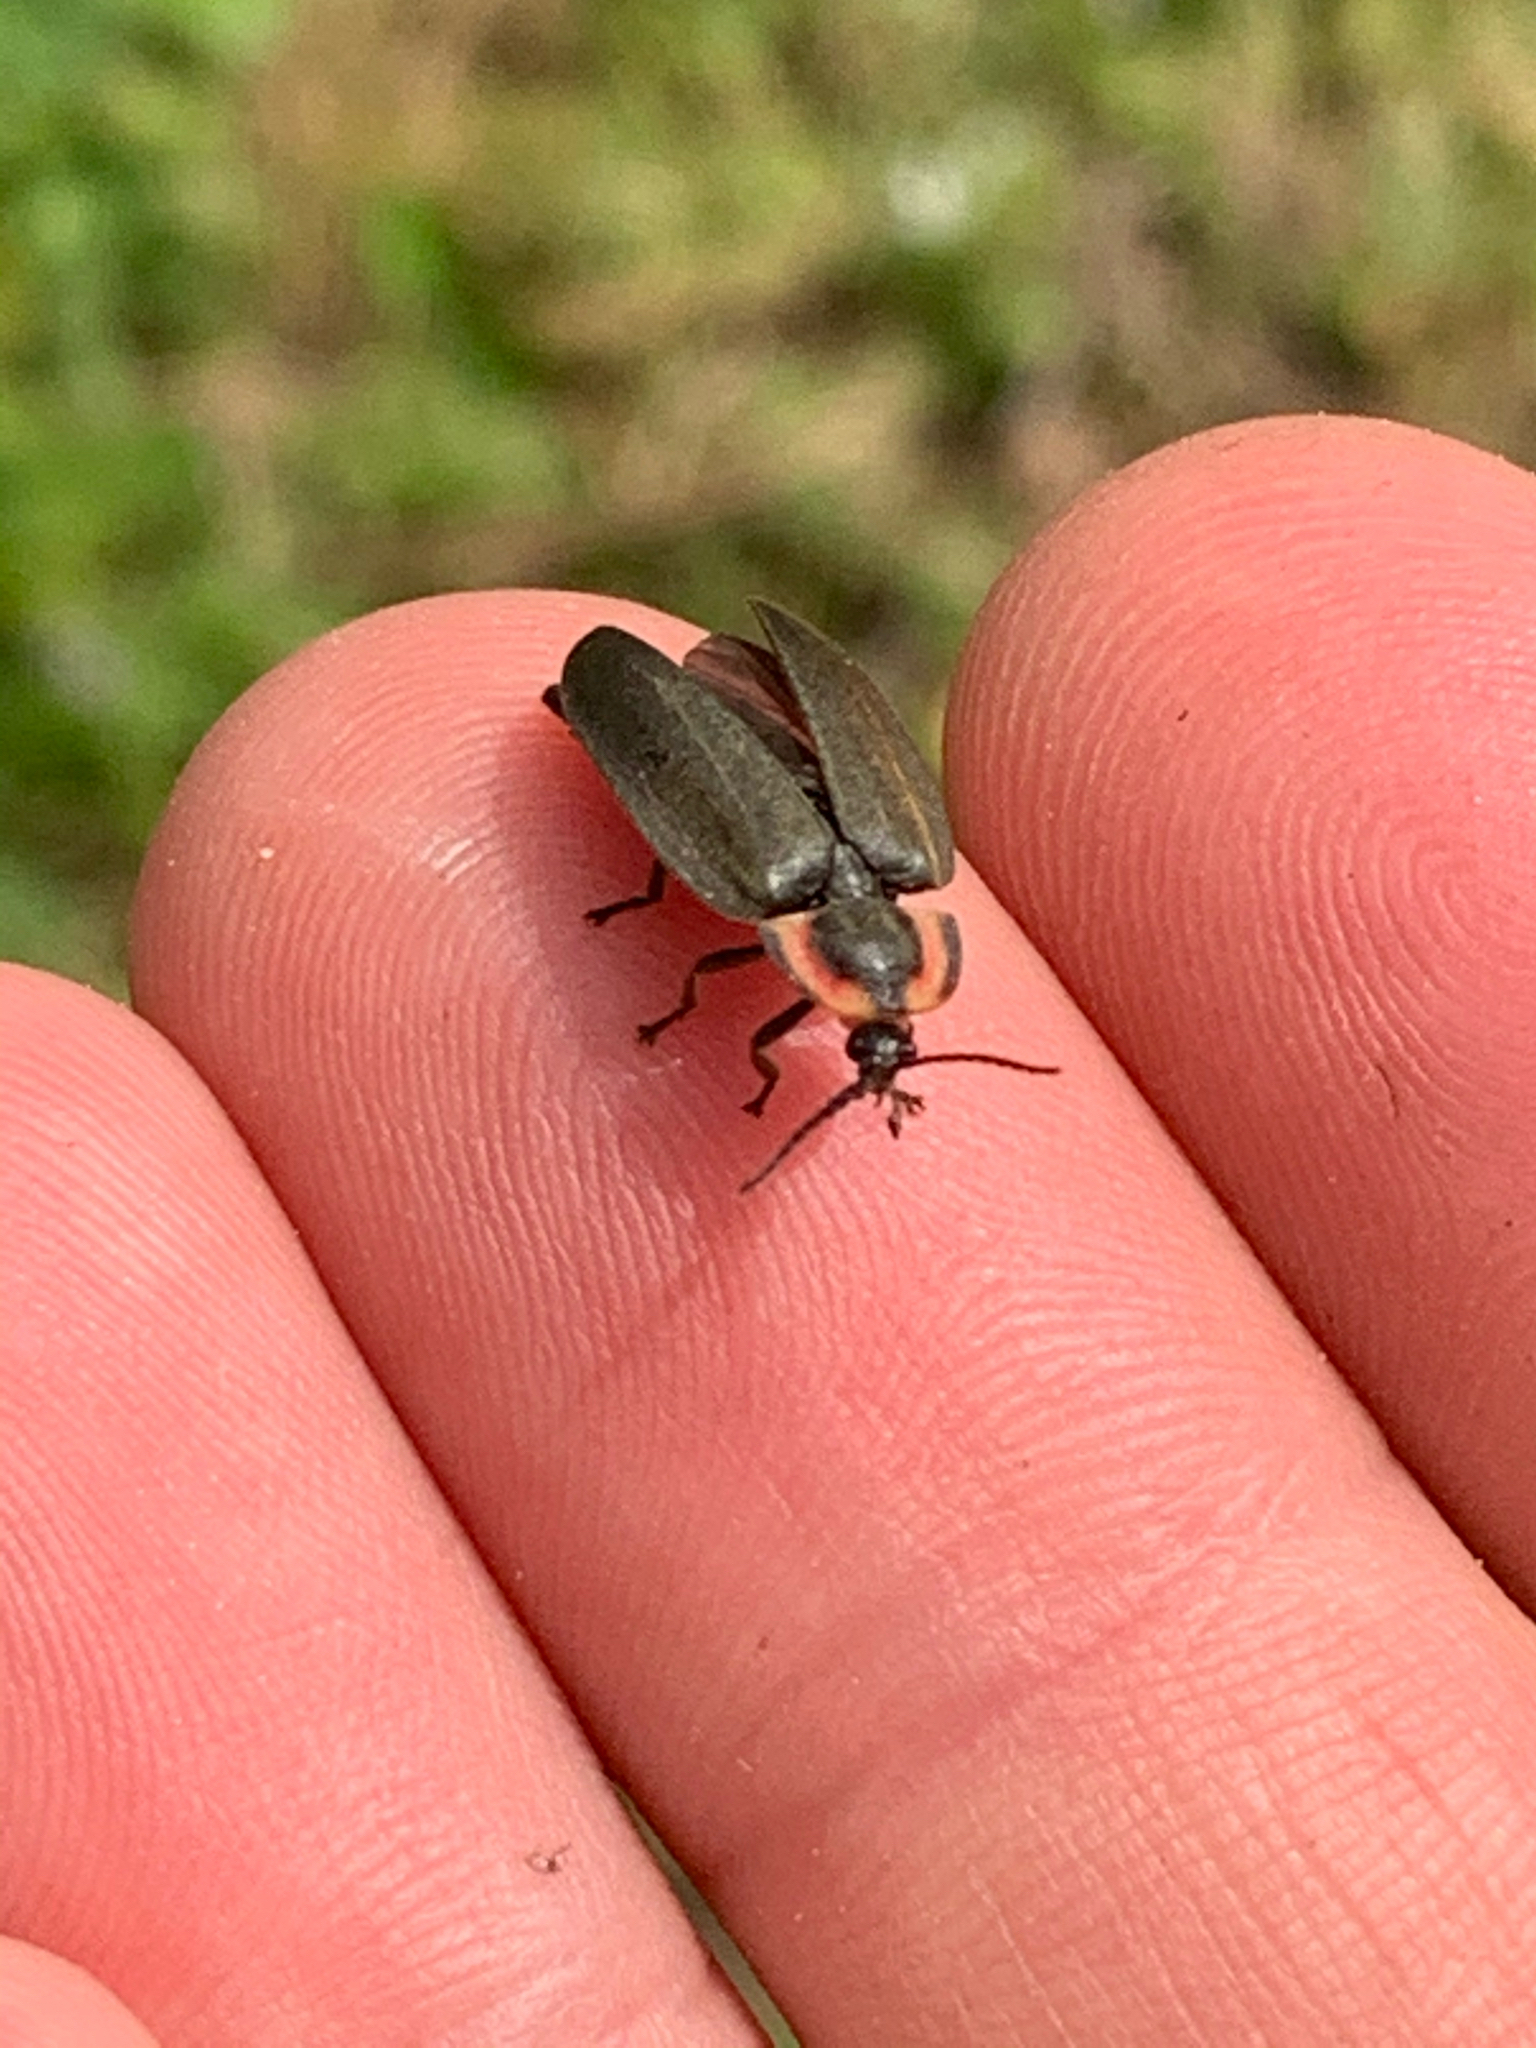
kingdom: Animalia
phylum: Arthropoda
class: Insecta
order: Coleoptera
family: Lampyridae
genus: Photinus
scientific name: Photinus corrusca
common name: Winter firefly
